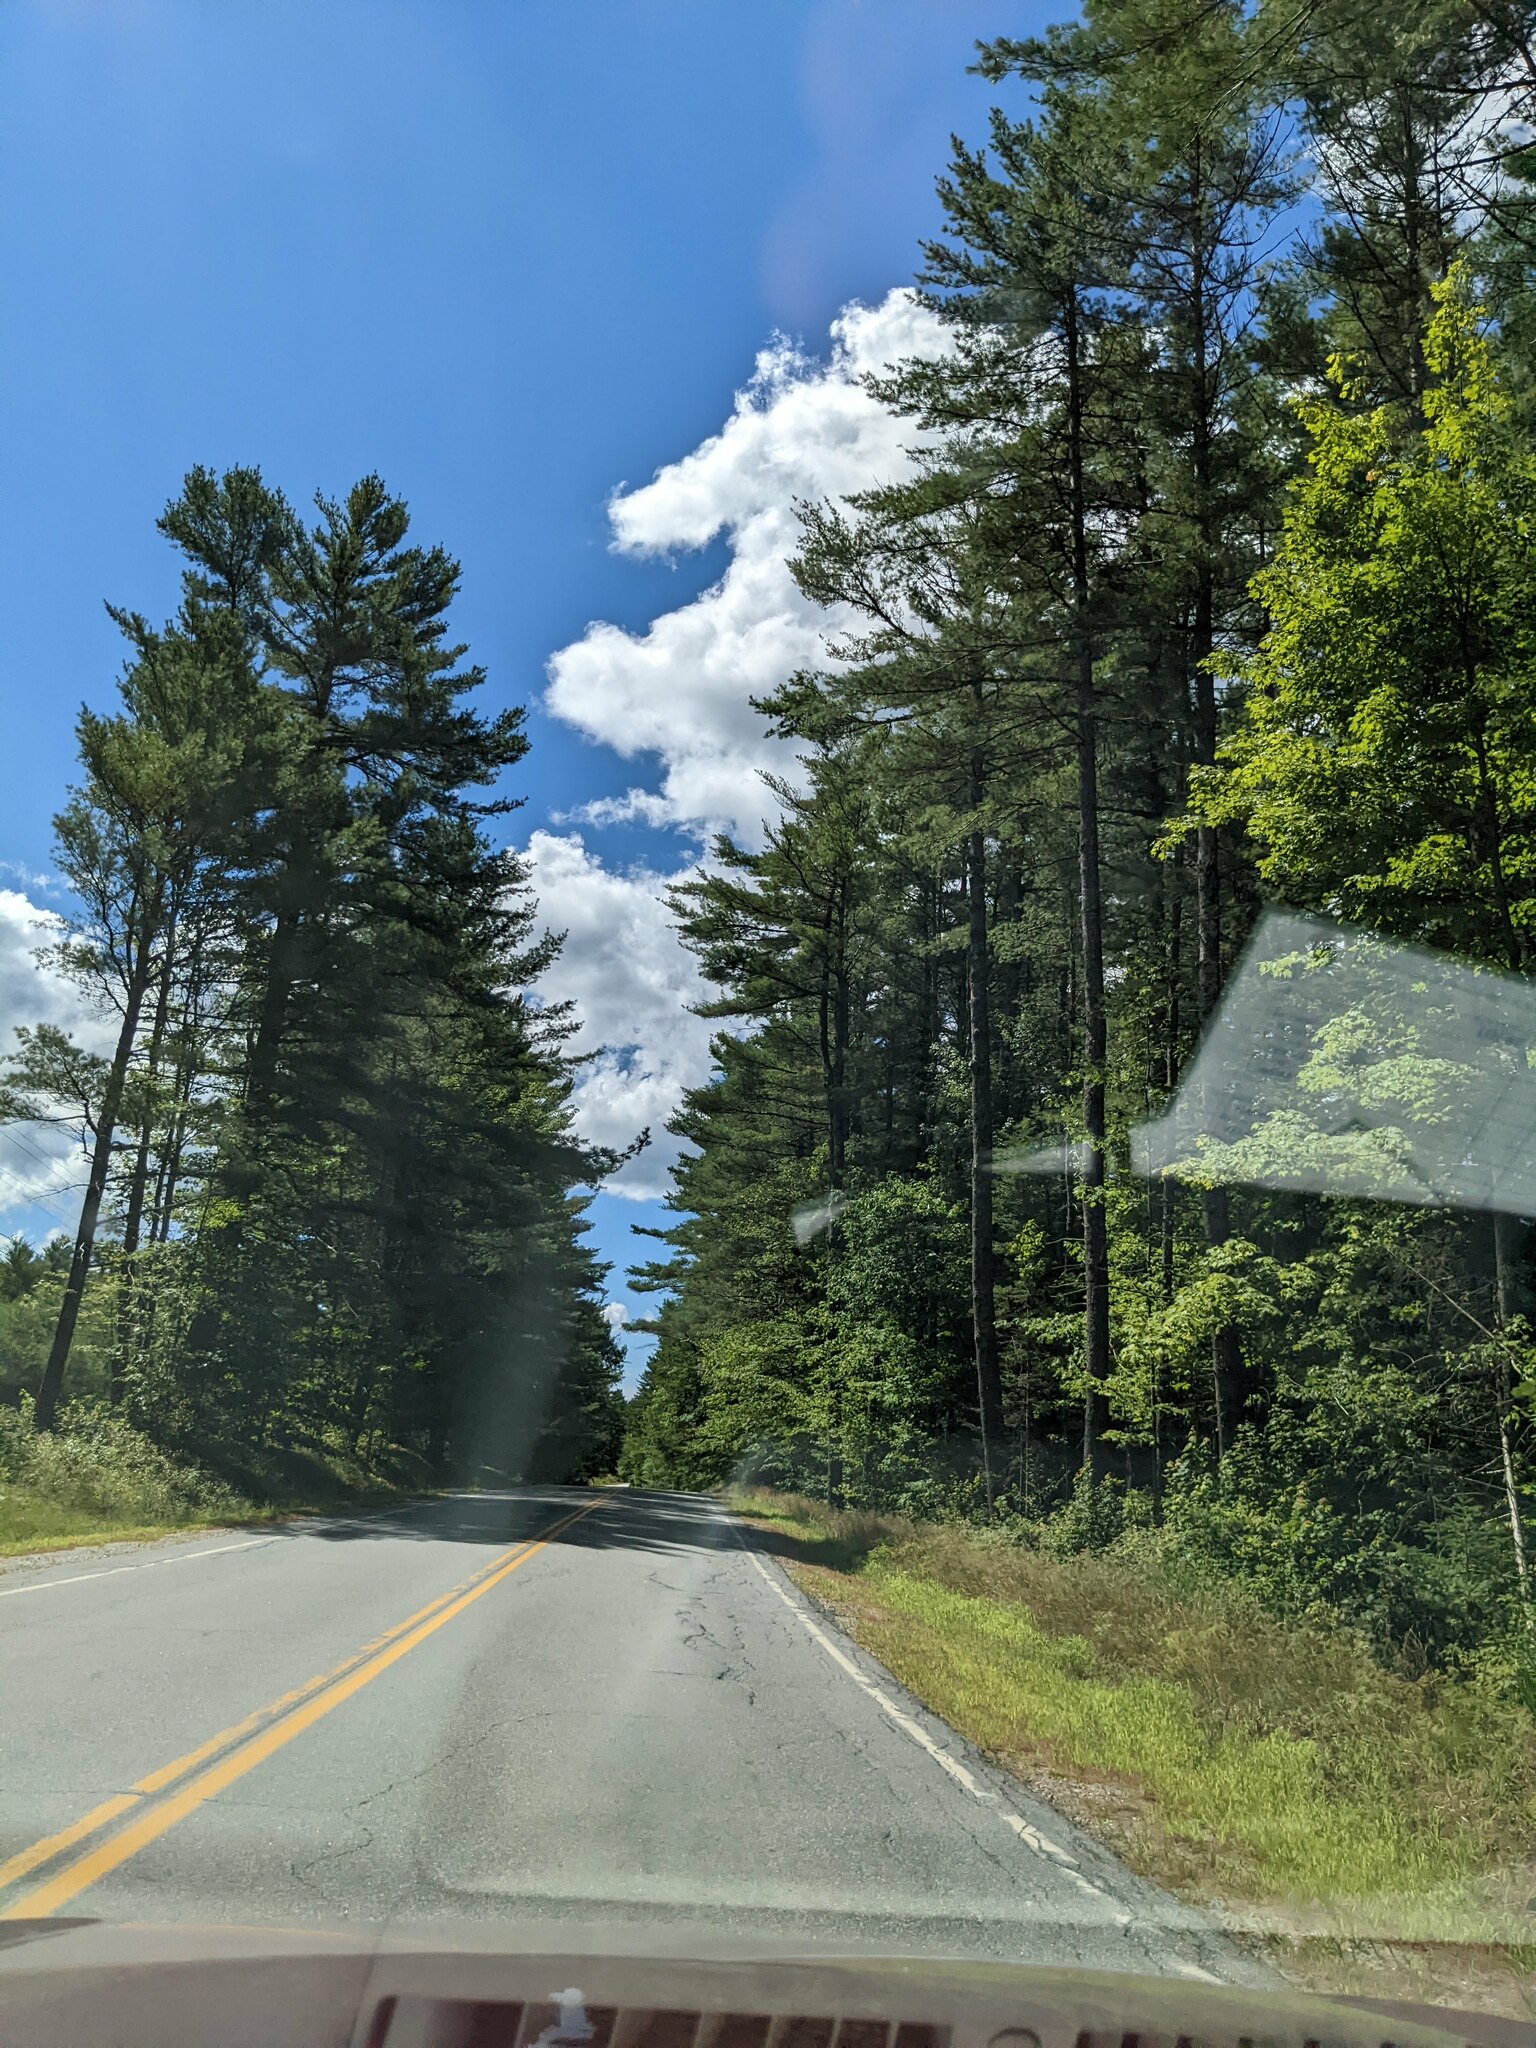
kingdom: Plantae
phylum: Tracheophyta
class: Pinopsida
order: Pinales
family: Pinaceae
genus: Pinus
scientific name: Pinus strobus
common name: Weymouth pine
